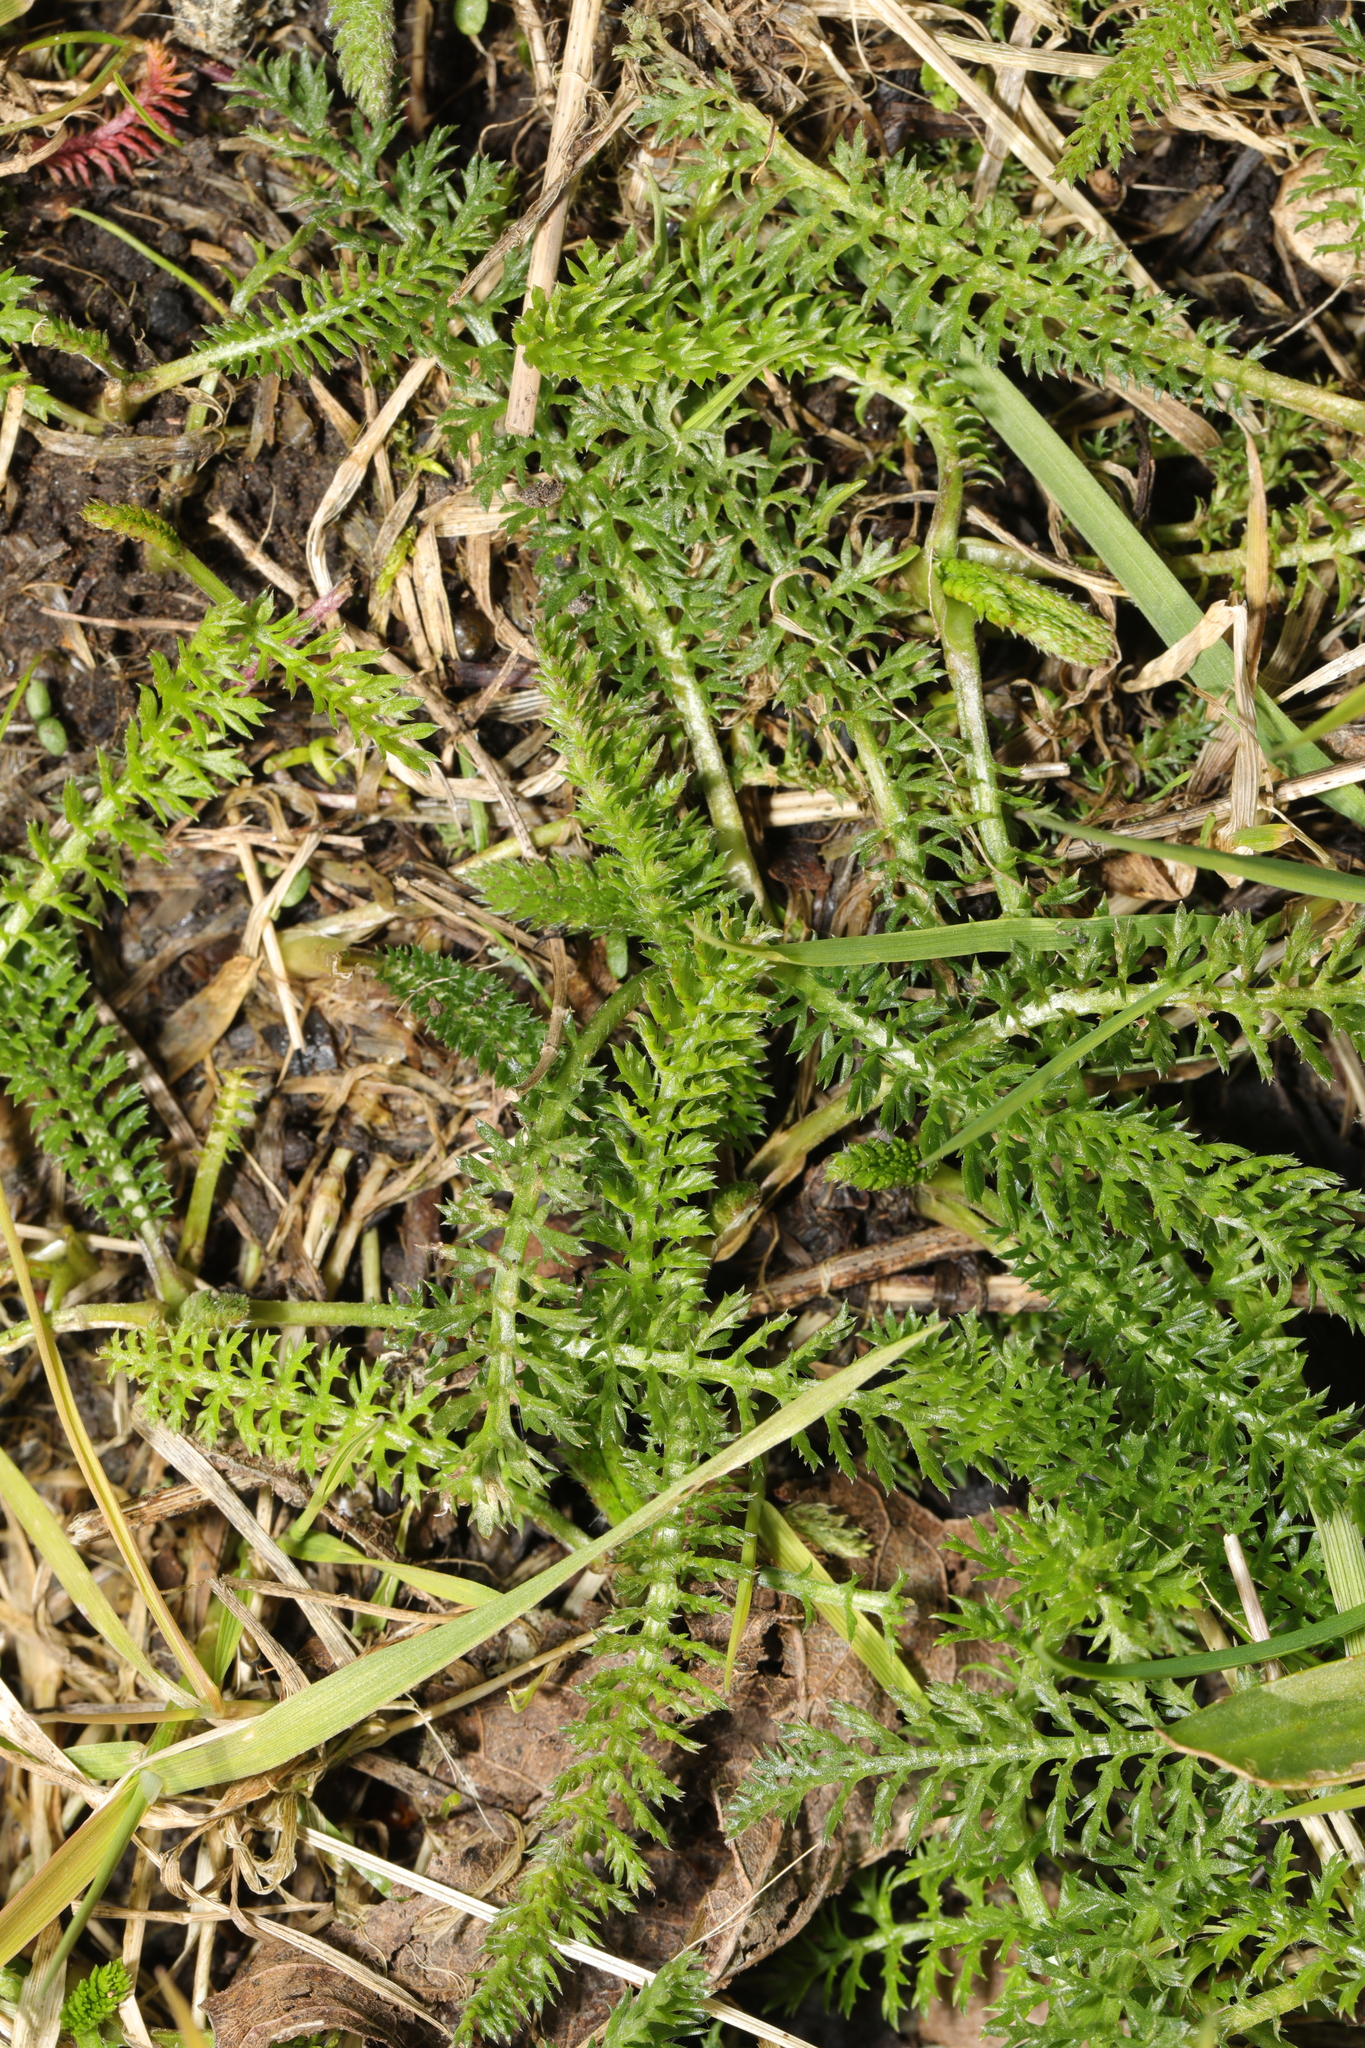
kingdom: Plantae
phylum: Tracheophyta
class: Magnoliopsida
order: Asterales
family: Asteraceae
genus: Achillea
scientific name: Achillea millefolium
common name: Yarrow
